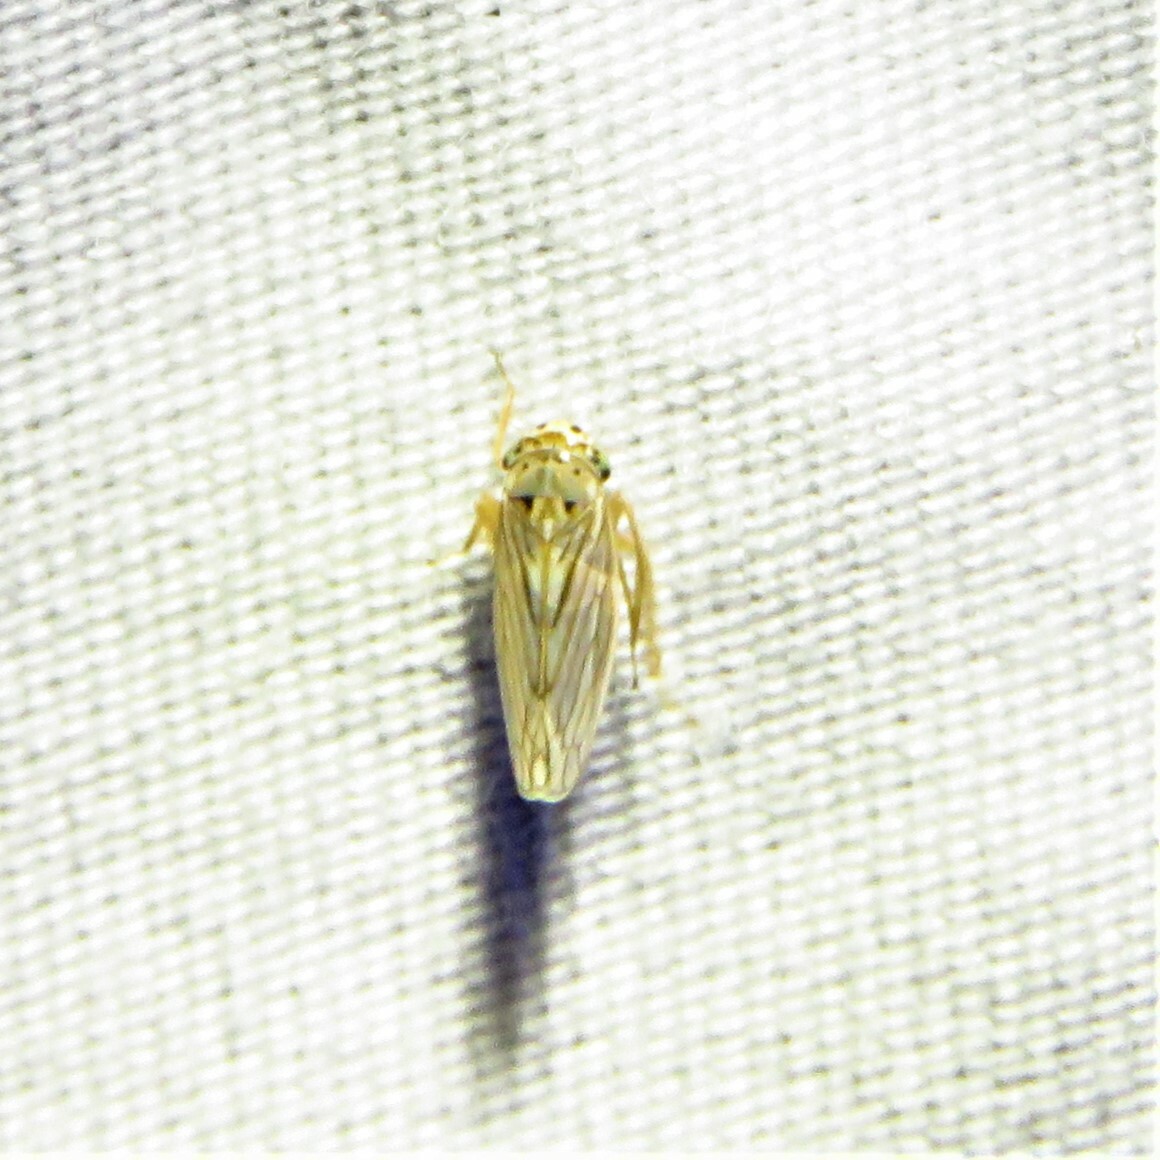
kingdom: Animalia
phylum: Arthropoda
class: Insecta
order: Hemiptera
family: Cicadellidae
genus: Exitianus
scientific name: Exitianus exitiosus
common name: Gray lawn leafhopper
